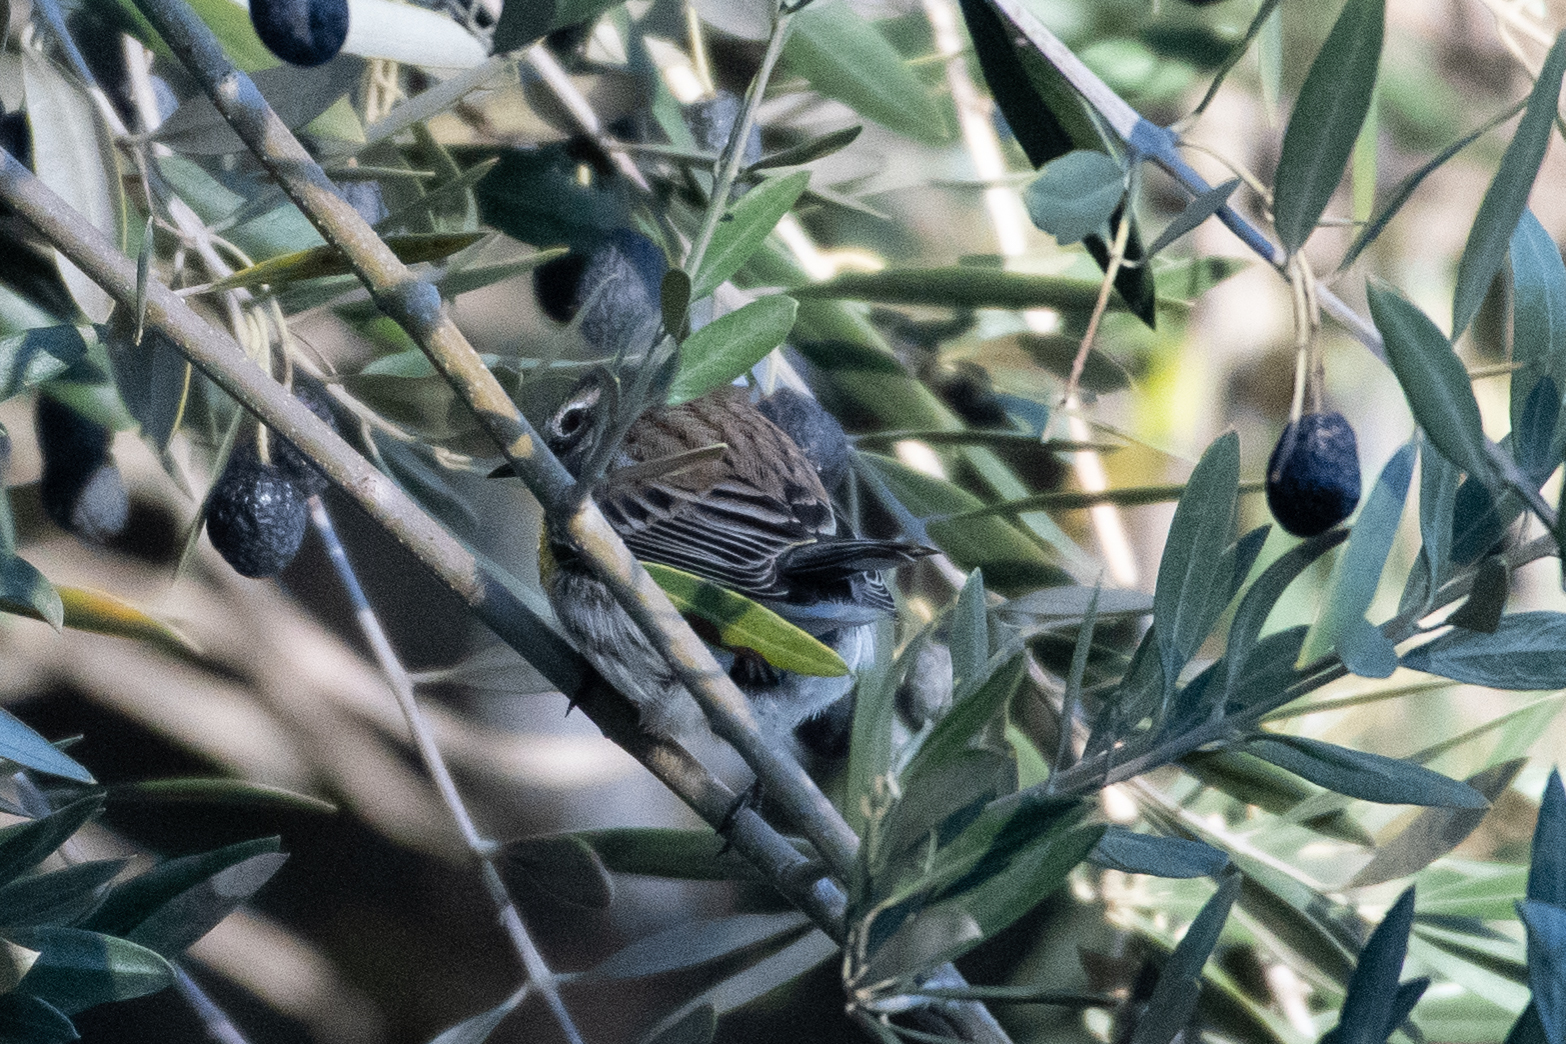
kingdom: Animalia
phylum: Chordata
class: Aves
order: Passeriformes
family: Parulidae
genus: Setophaga
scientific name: Setophaga coronata
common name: Myrtle warbler
